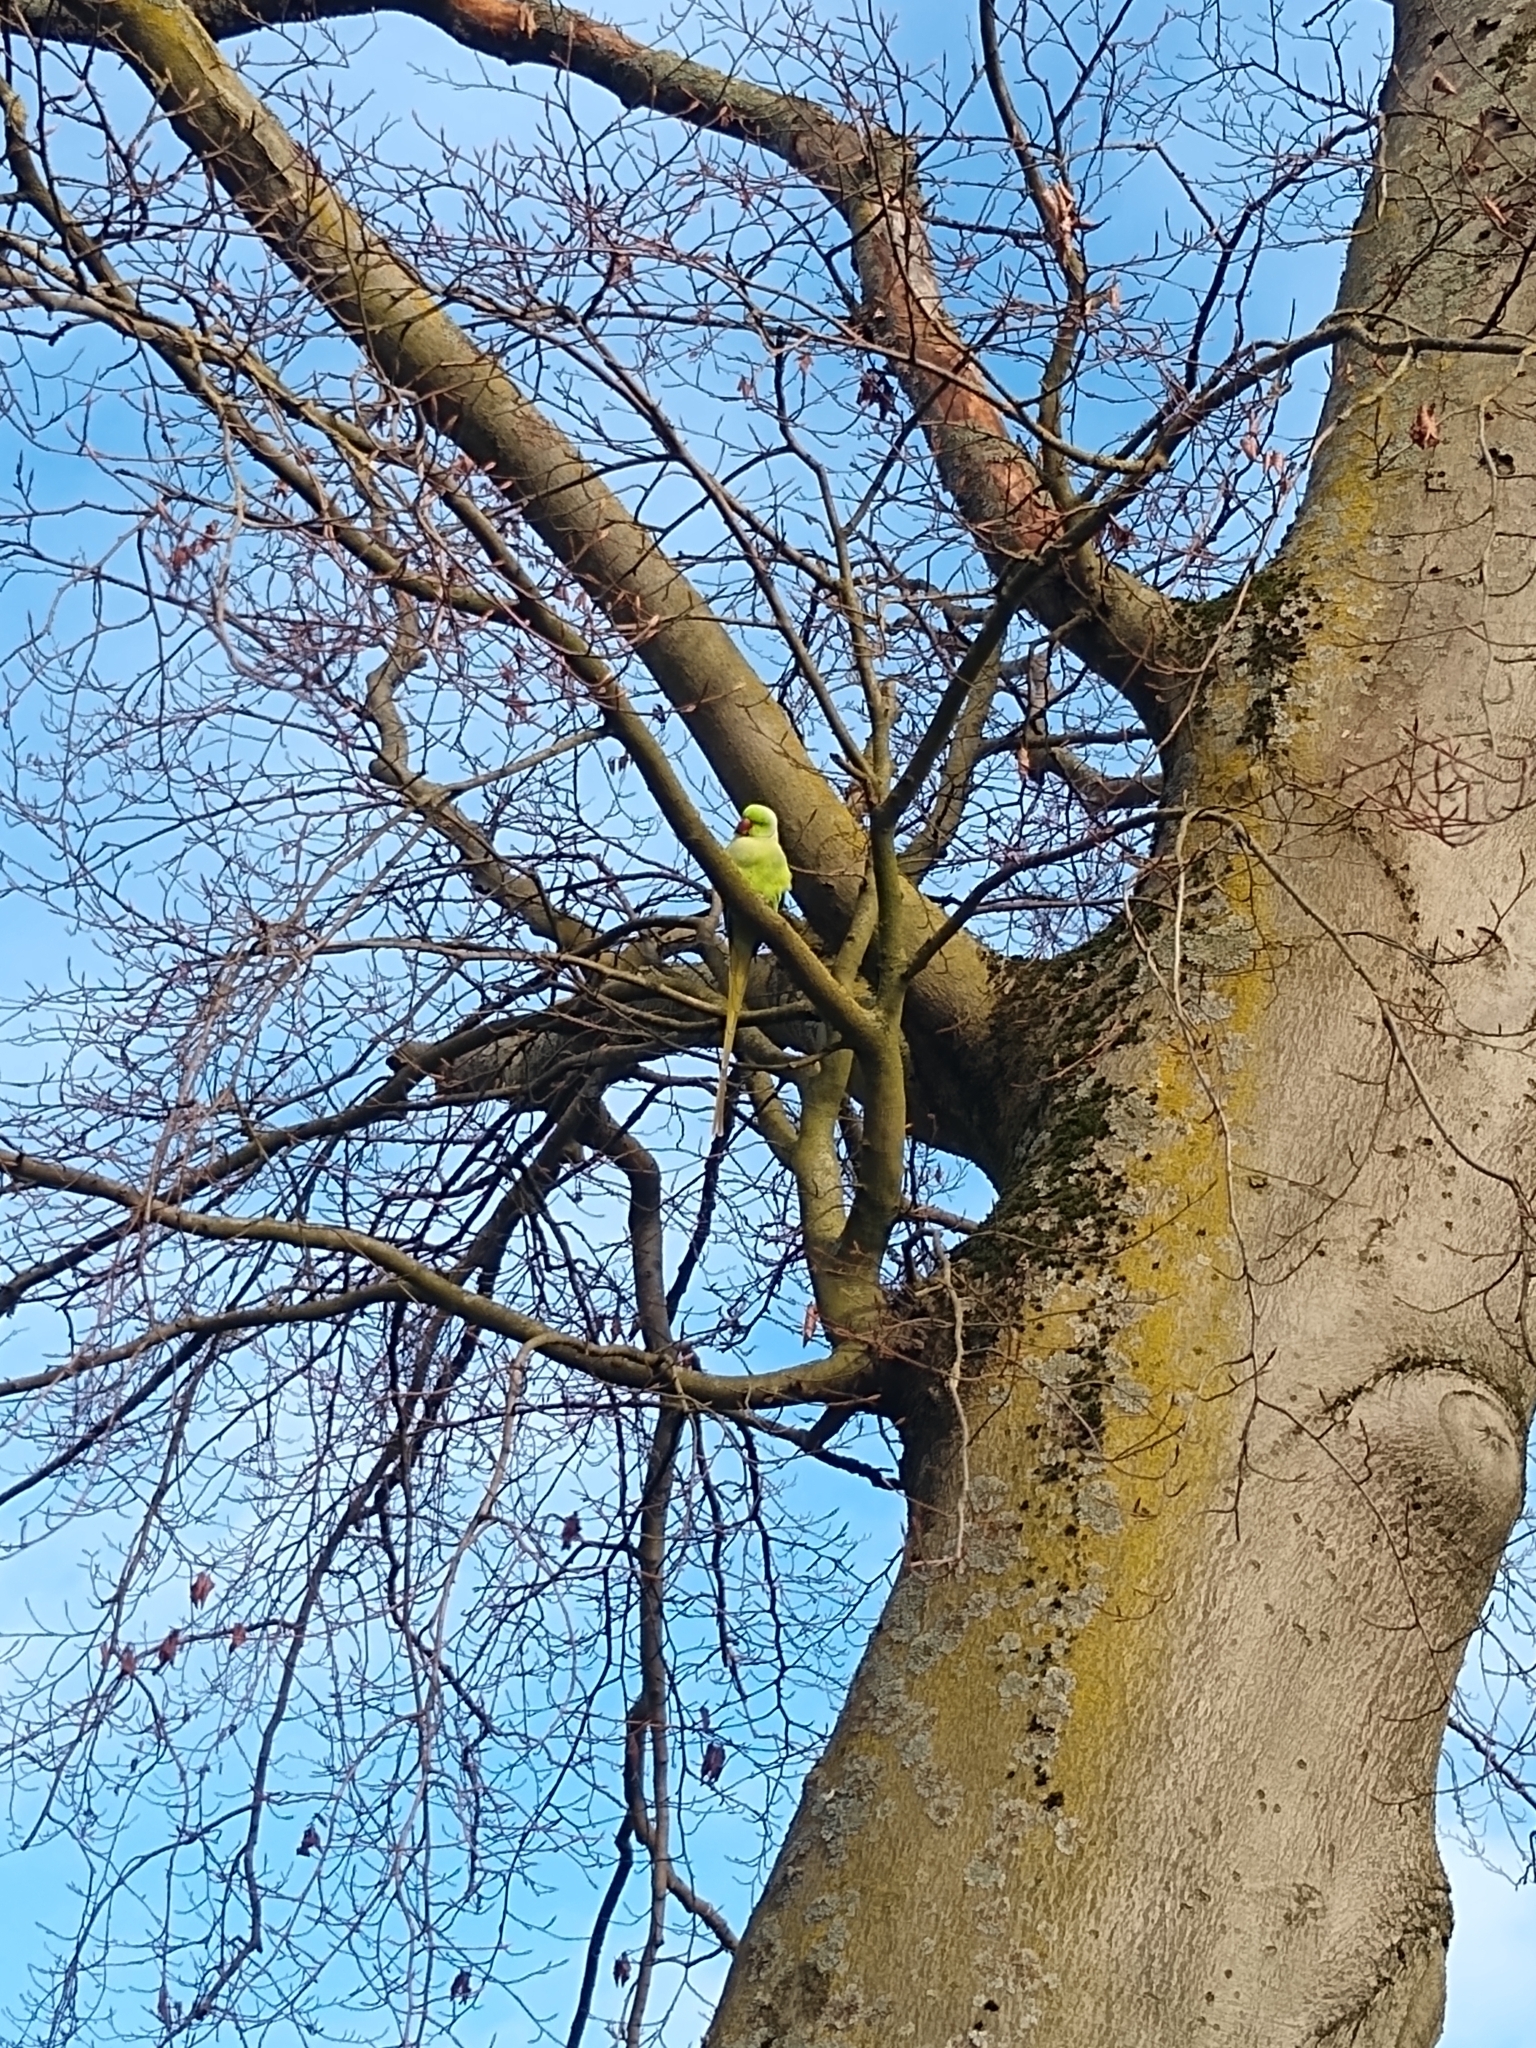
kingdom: Animalia
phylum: Chordata
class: Aves
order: Psittaciformes
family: Psittacidae
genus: Psittacula
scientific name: Psittacula krameri
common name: Rose-ringed parakeet
